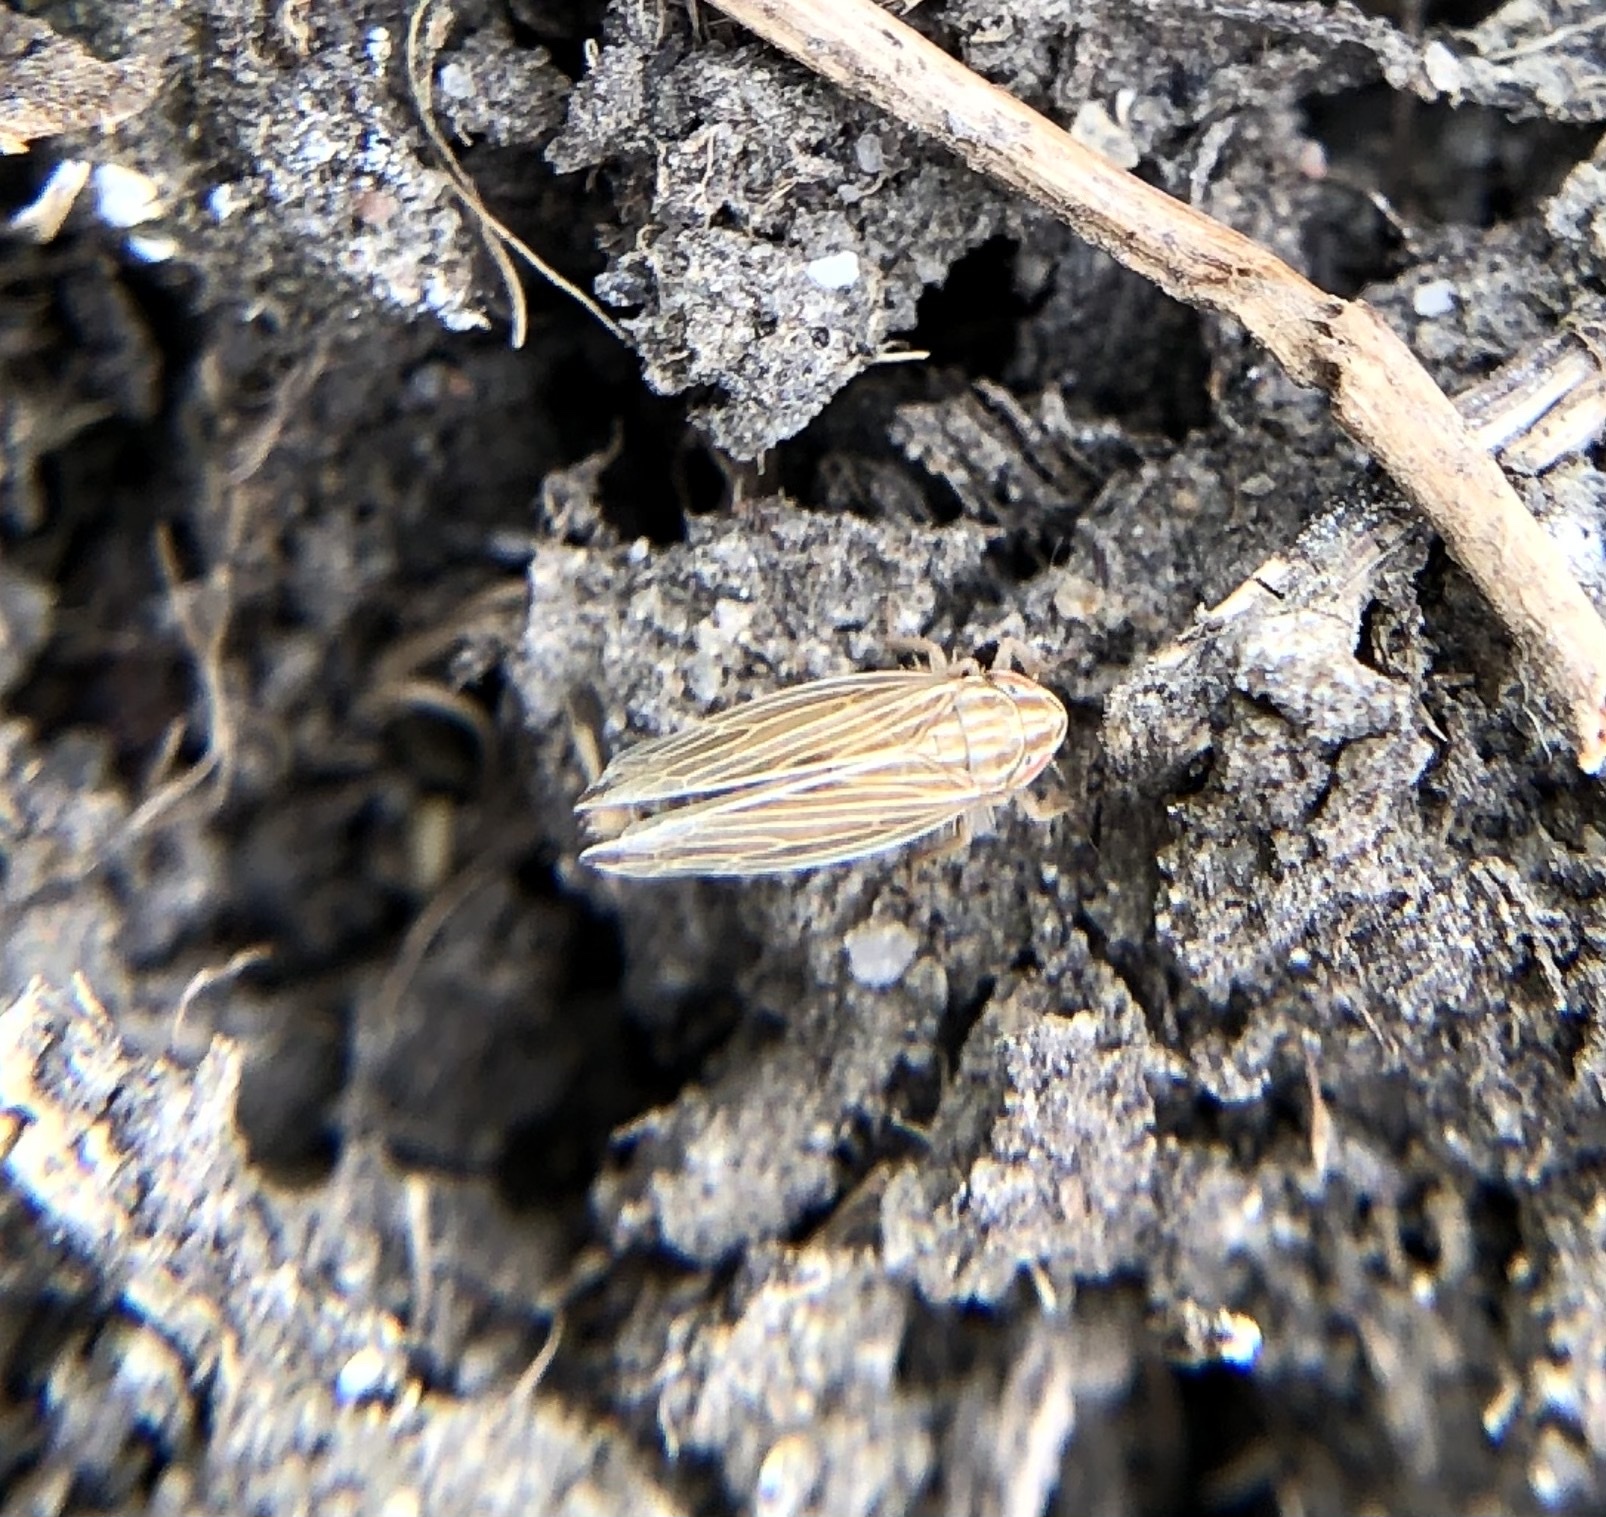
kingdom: Animalia
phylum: Arthropoda
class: Insecta
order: Hemiptera
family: Cicadellidae
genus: Mocydia
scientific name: Mocydia crocea
